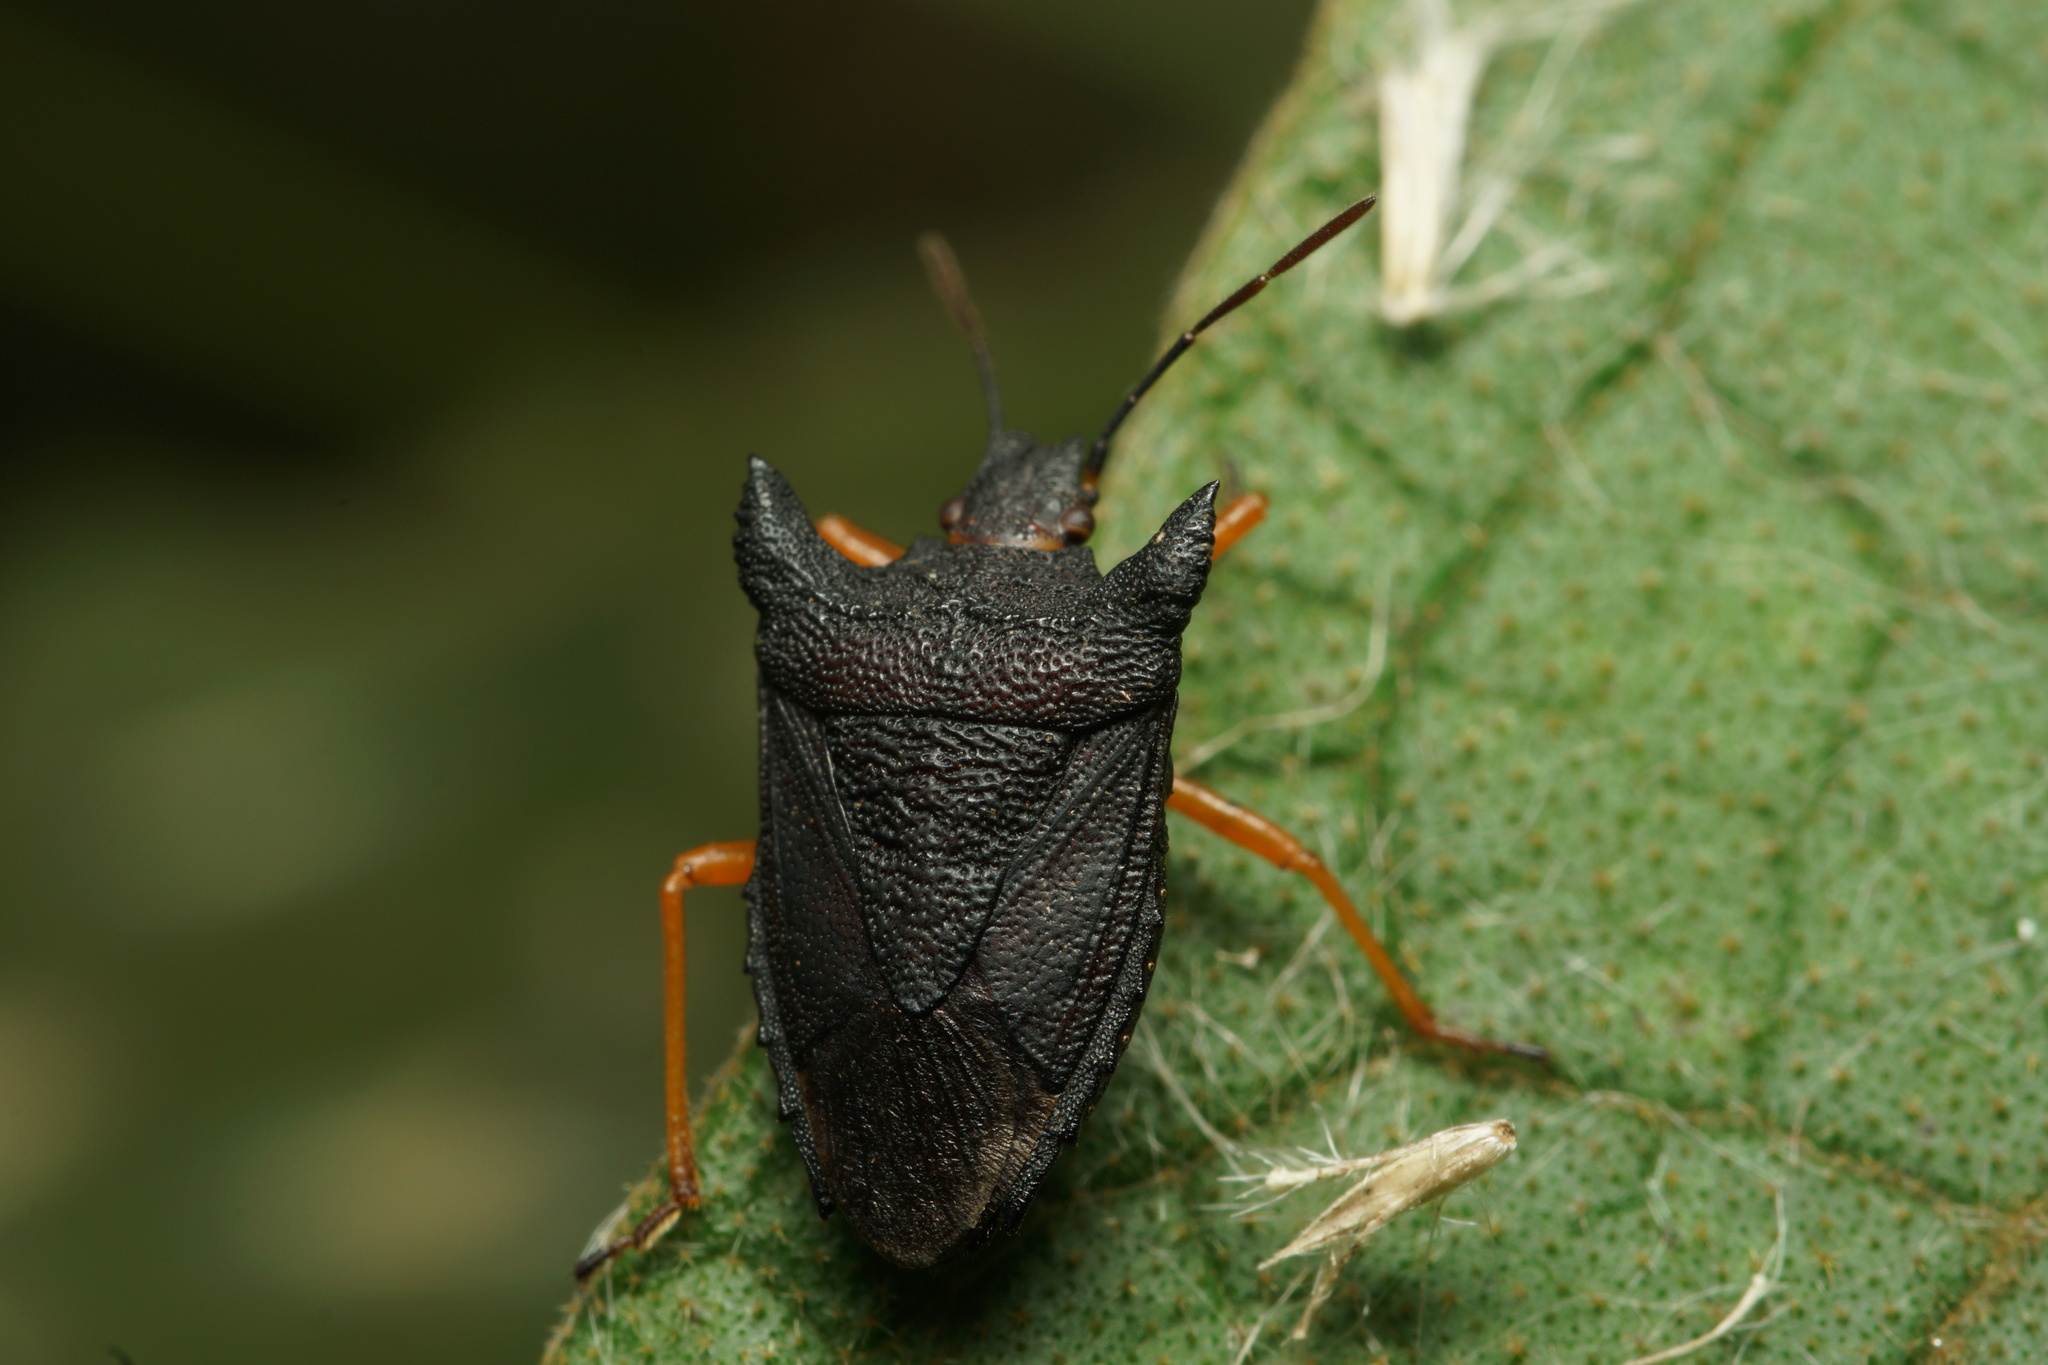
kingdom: Animalia
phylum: Arthropoda
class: Insecta
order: Hemiptera
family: Pentatomidae
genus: Caonabo
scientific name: Caonabo pseudoscylax
